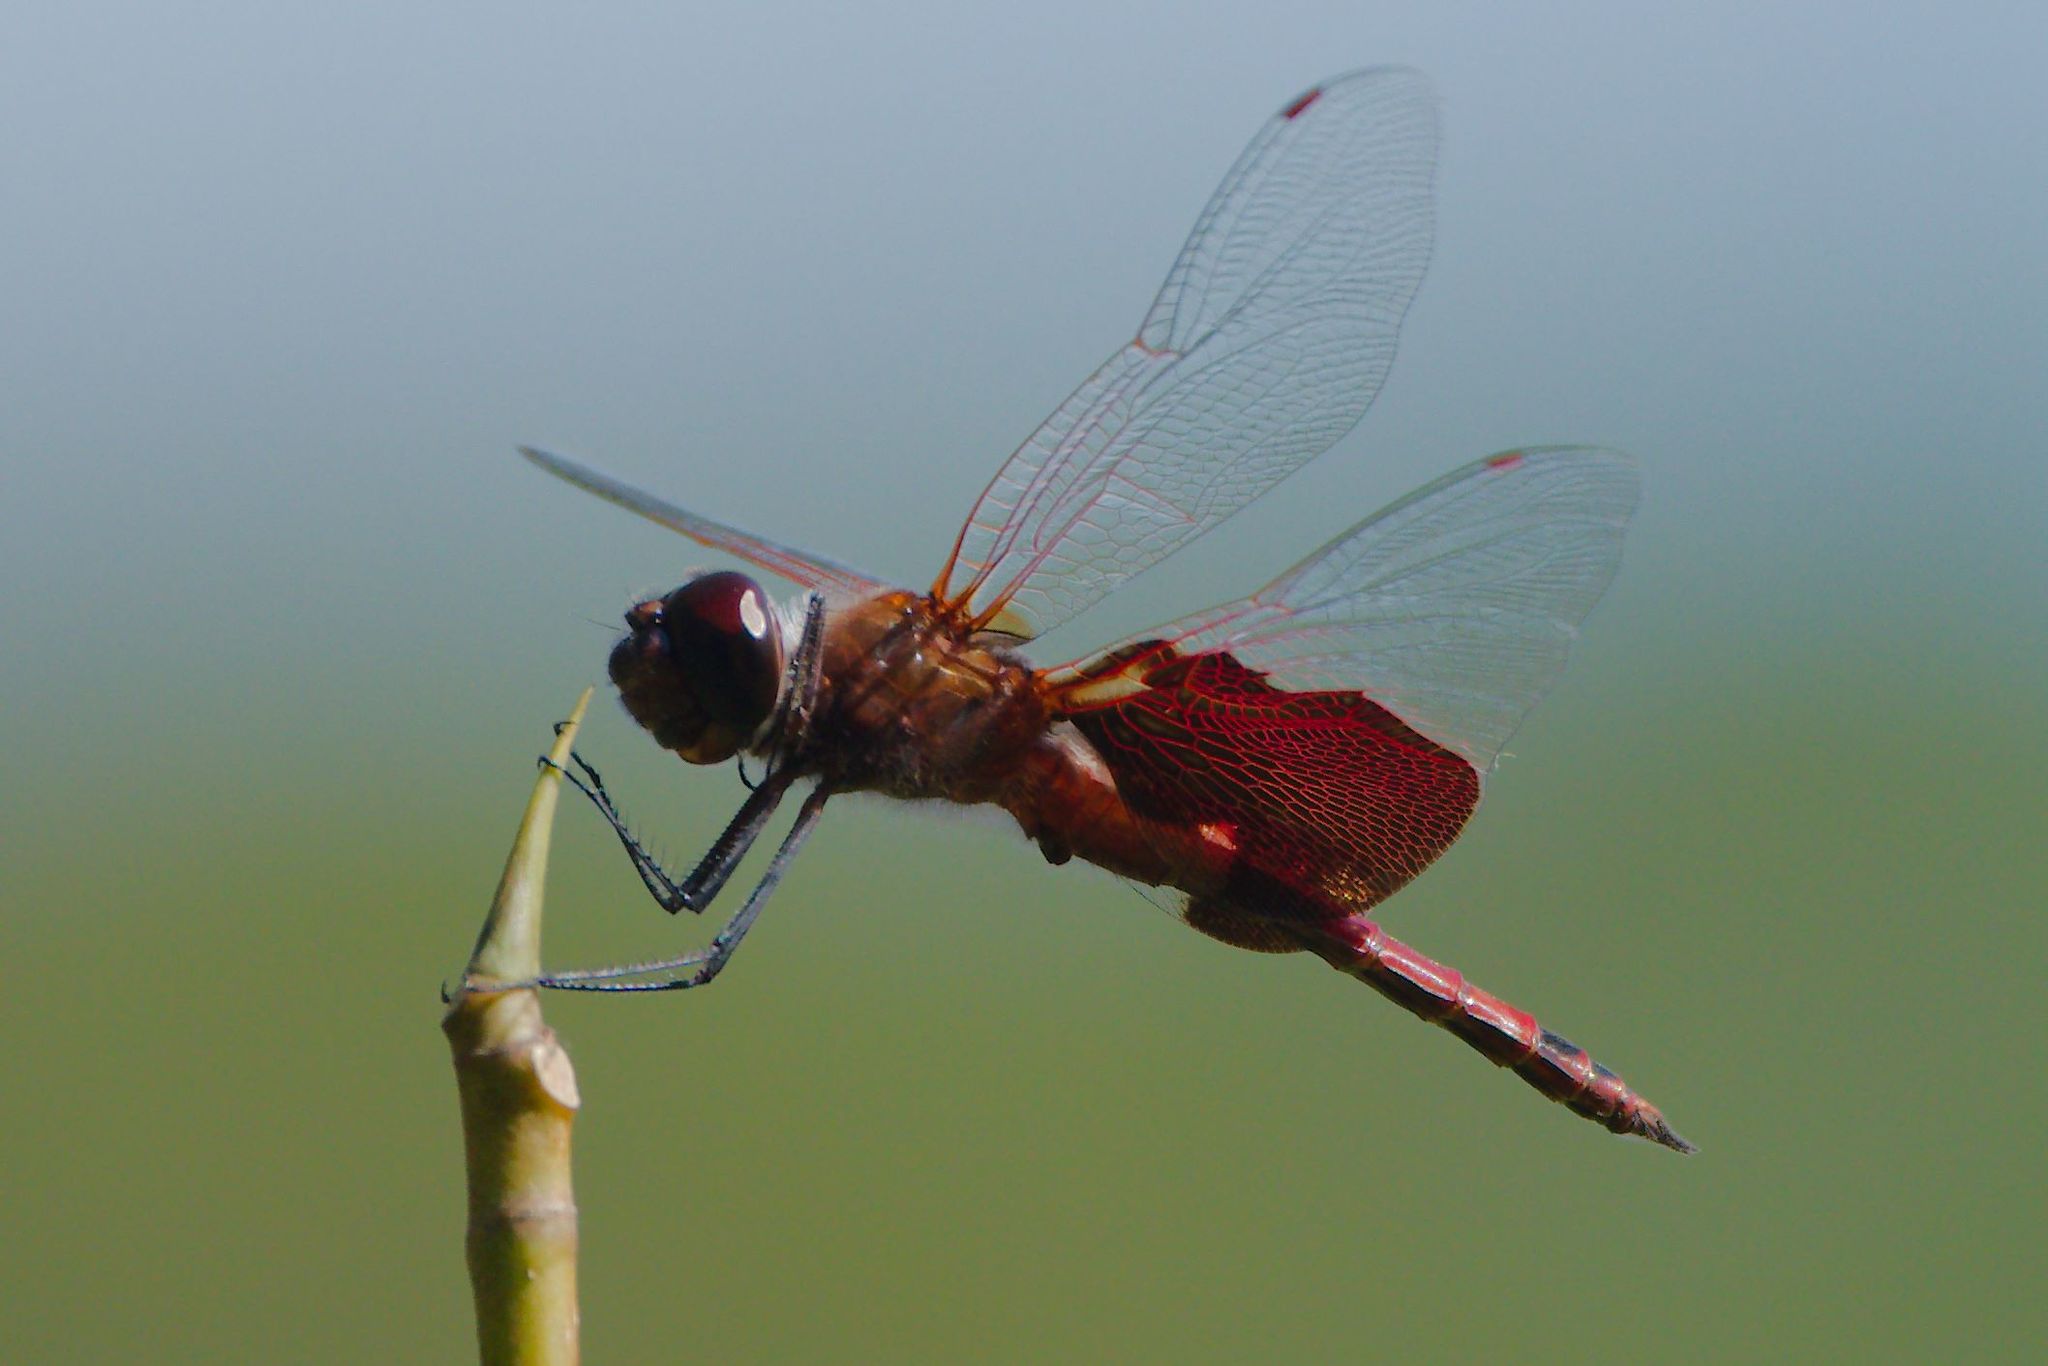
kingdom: Animalia
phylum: Arthropoda
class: Insecta
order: Odonata
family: Libellulidae
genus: Tramea
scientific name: Tramea carolina
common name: Carolina saddlebags
